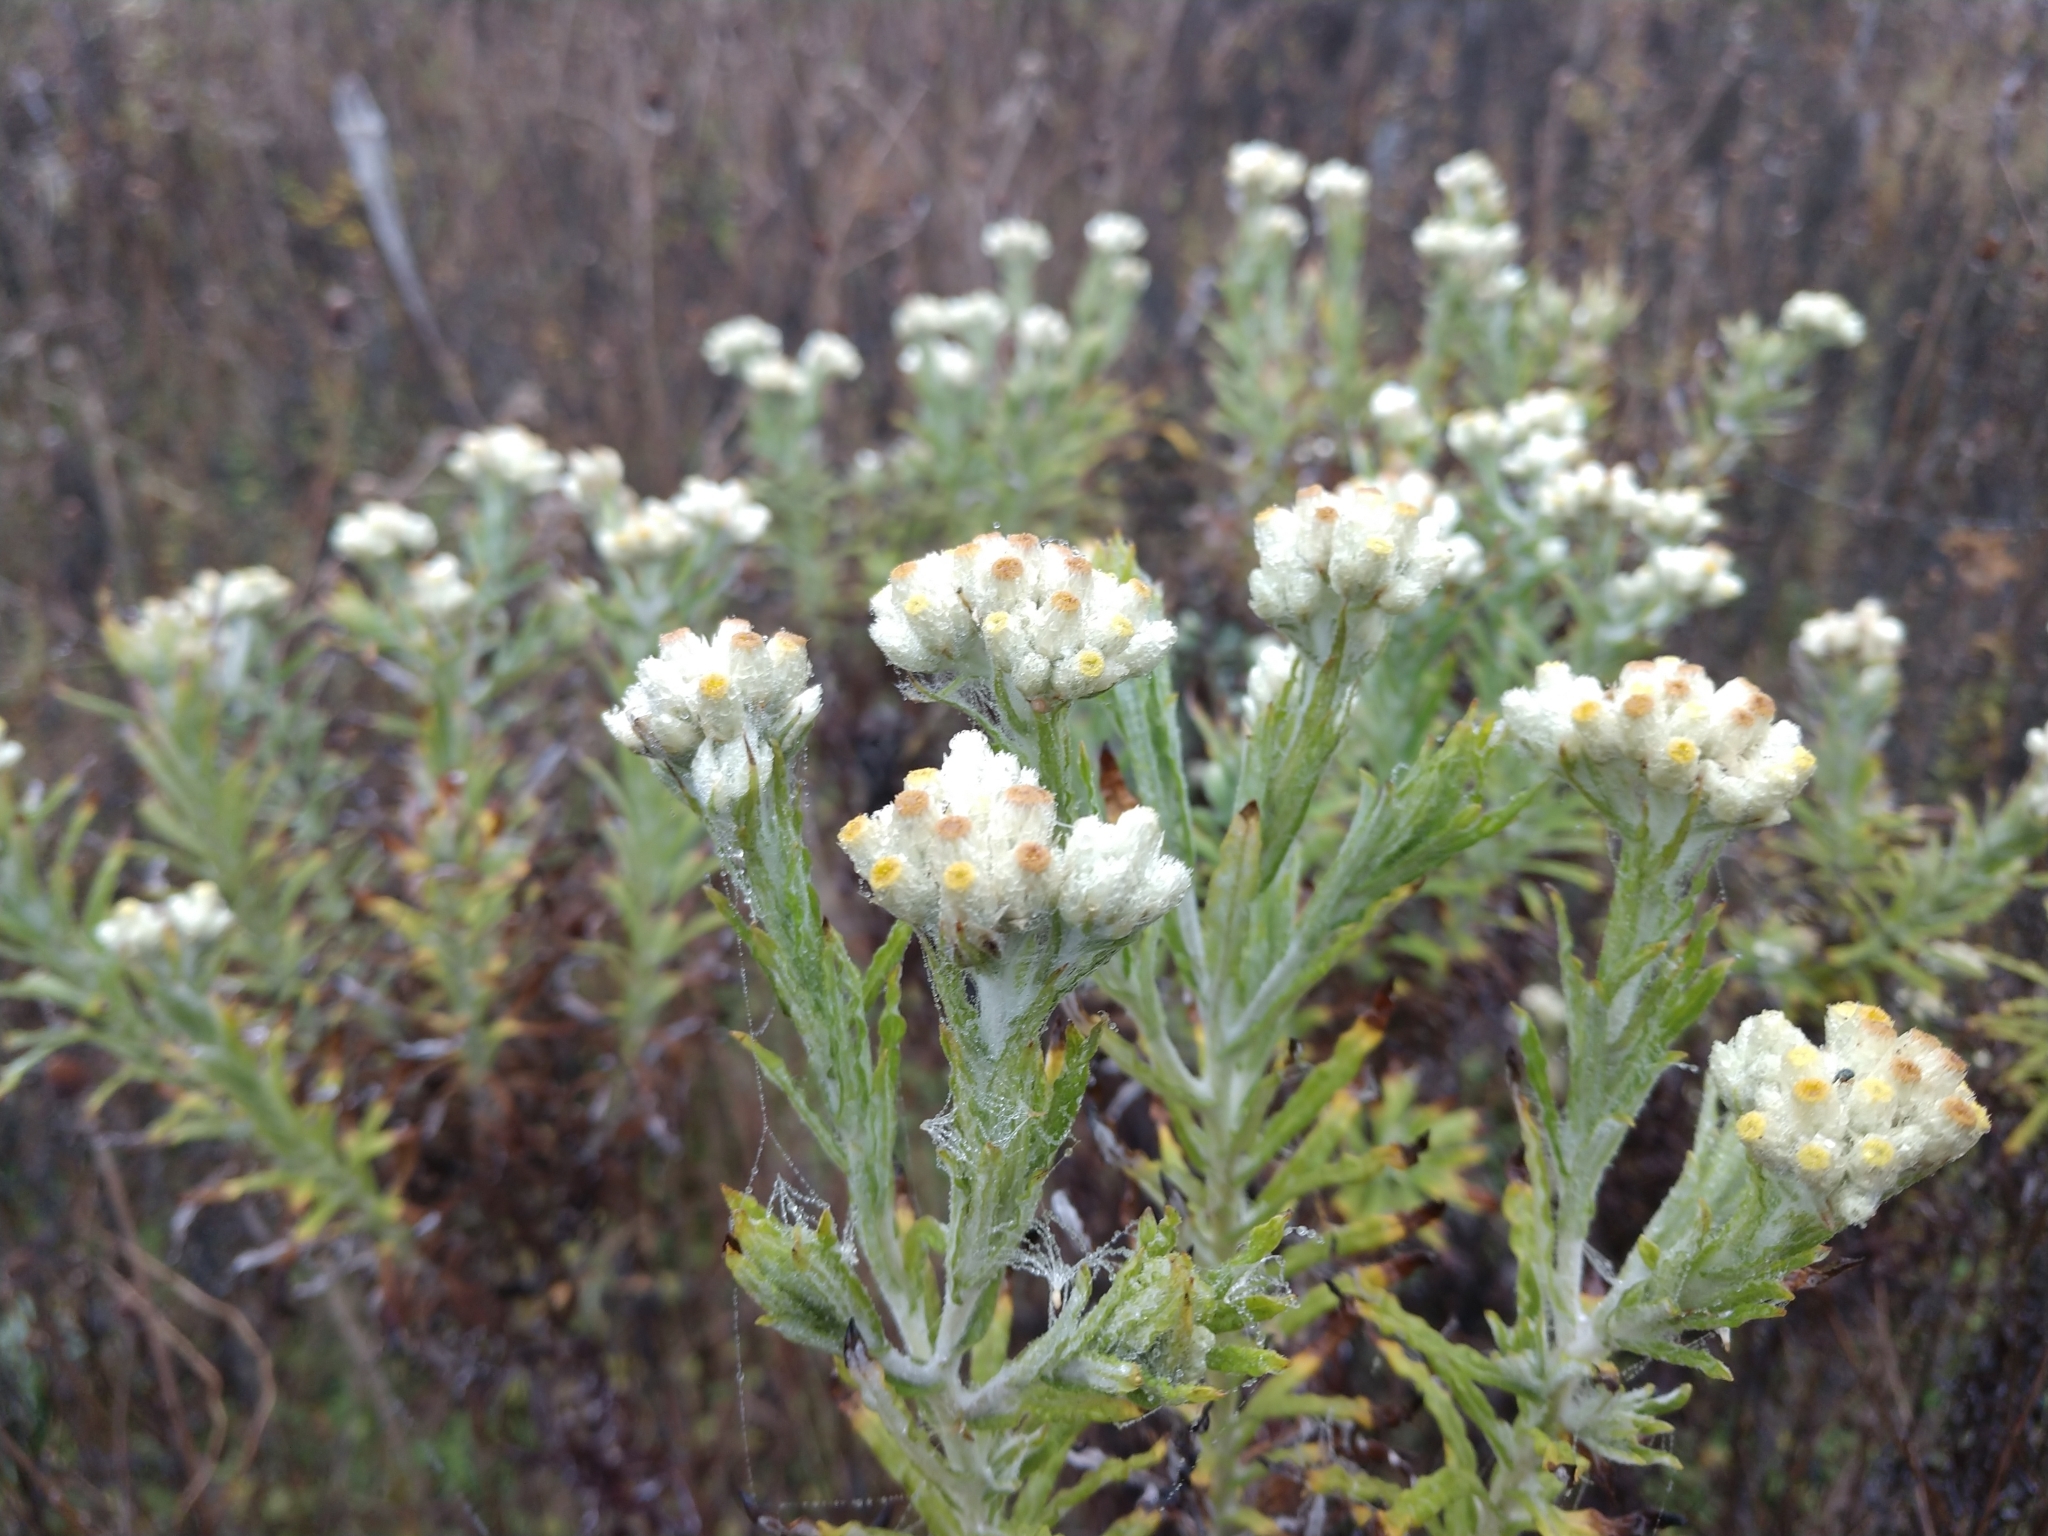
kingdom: Plantae
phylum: Tracheophyta
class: Magnoliopsida
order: Asterales
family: Asteraceae
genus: Pseudognaphalium
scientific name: Pseudognaphalium obtusifolium
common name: Eastern rabbit-tobacco
